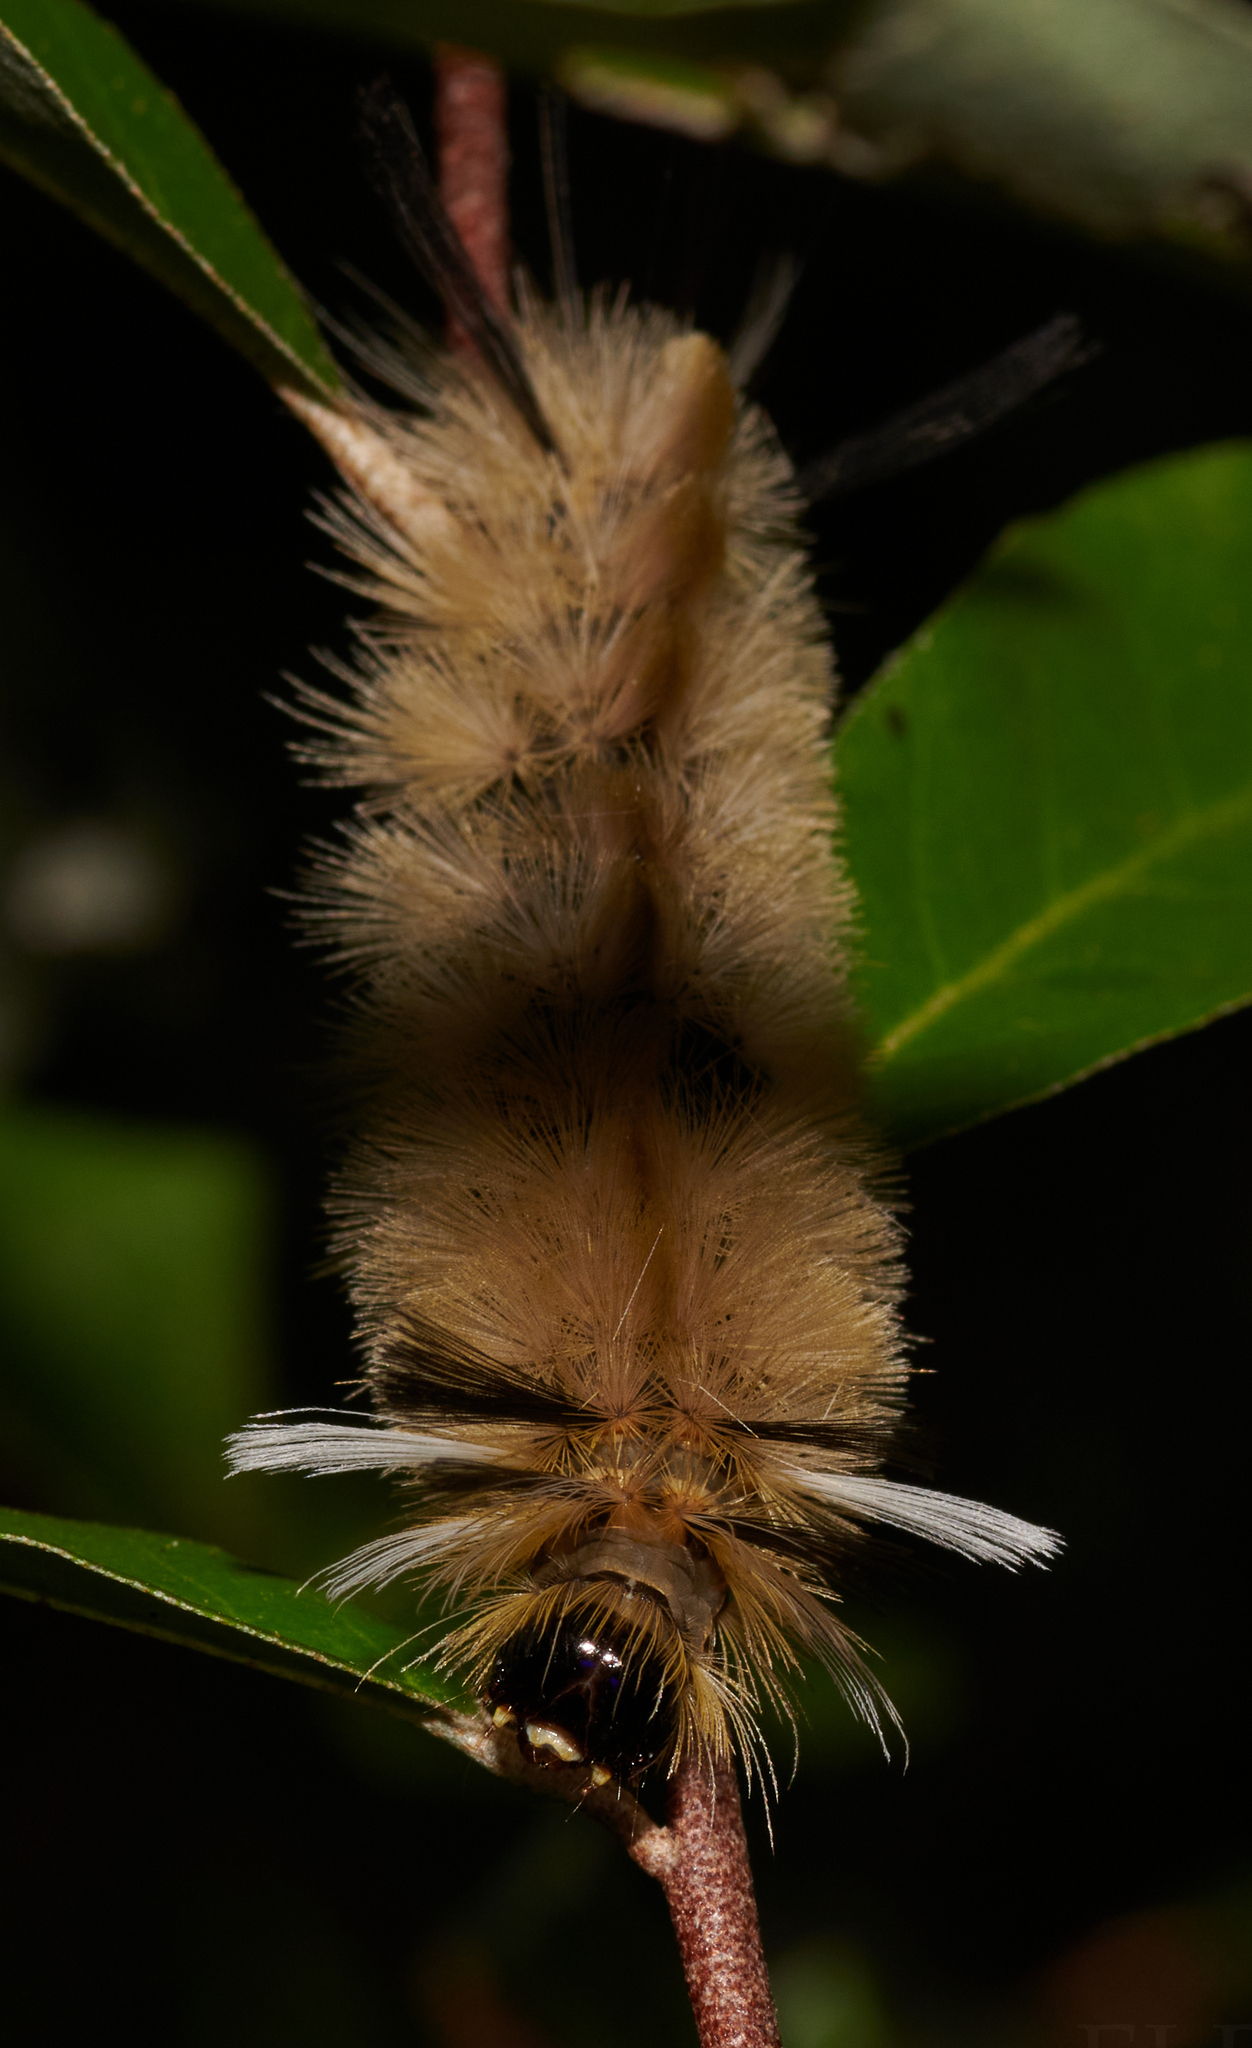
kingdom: Animalia
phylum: Arthropoda
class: Insecta
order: Lepidoptera
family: Erebidae
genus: Halysidota
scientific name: Halysidota tessellaris
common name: Banded tussock moth
